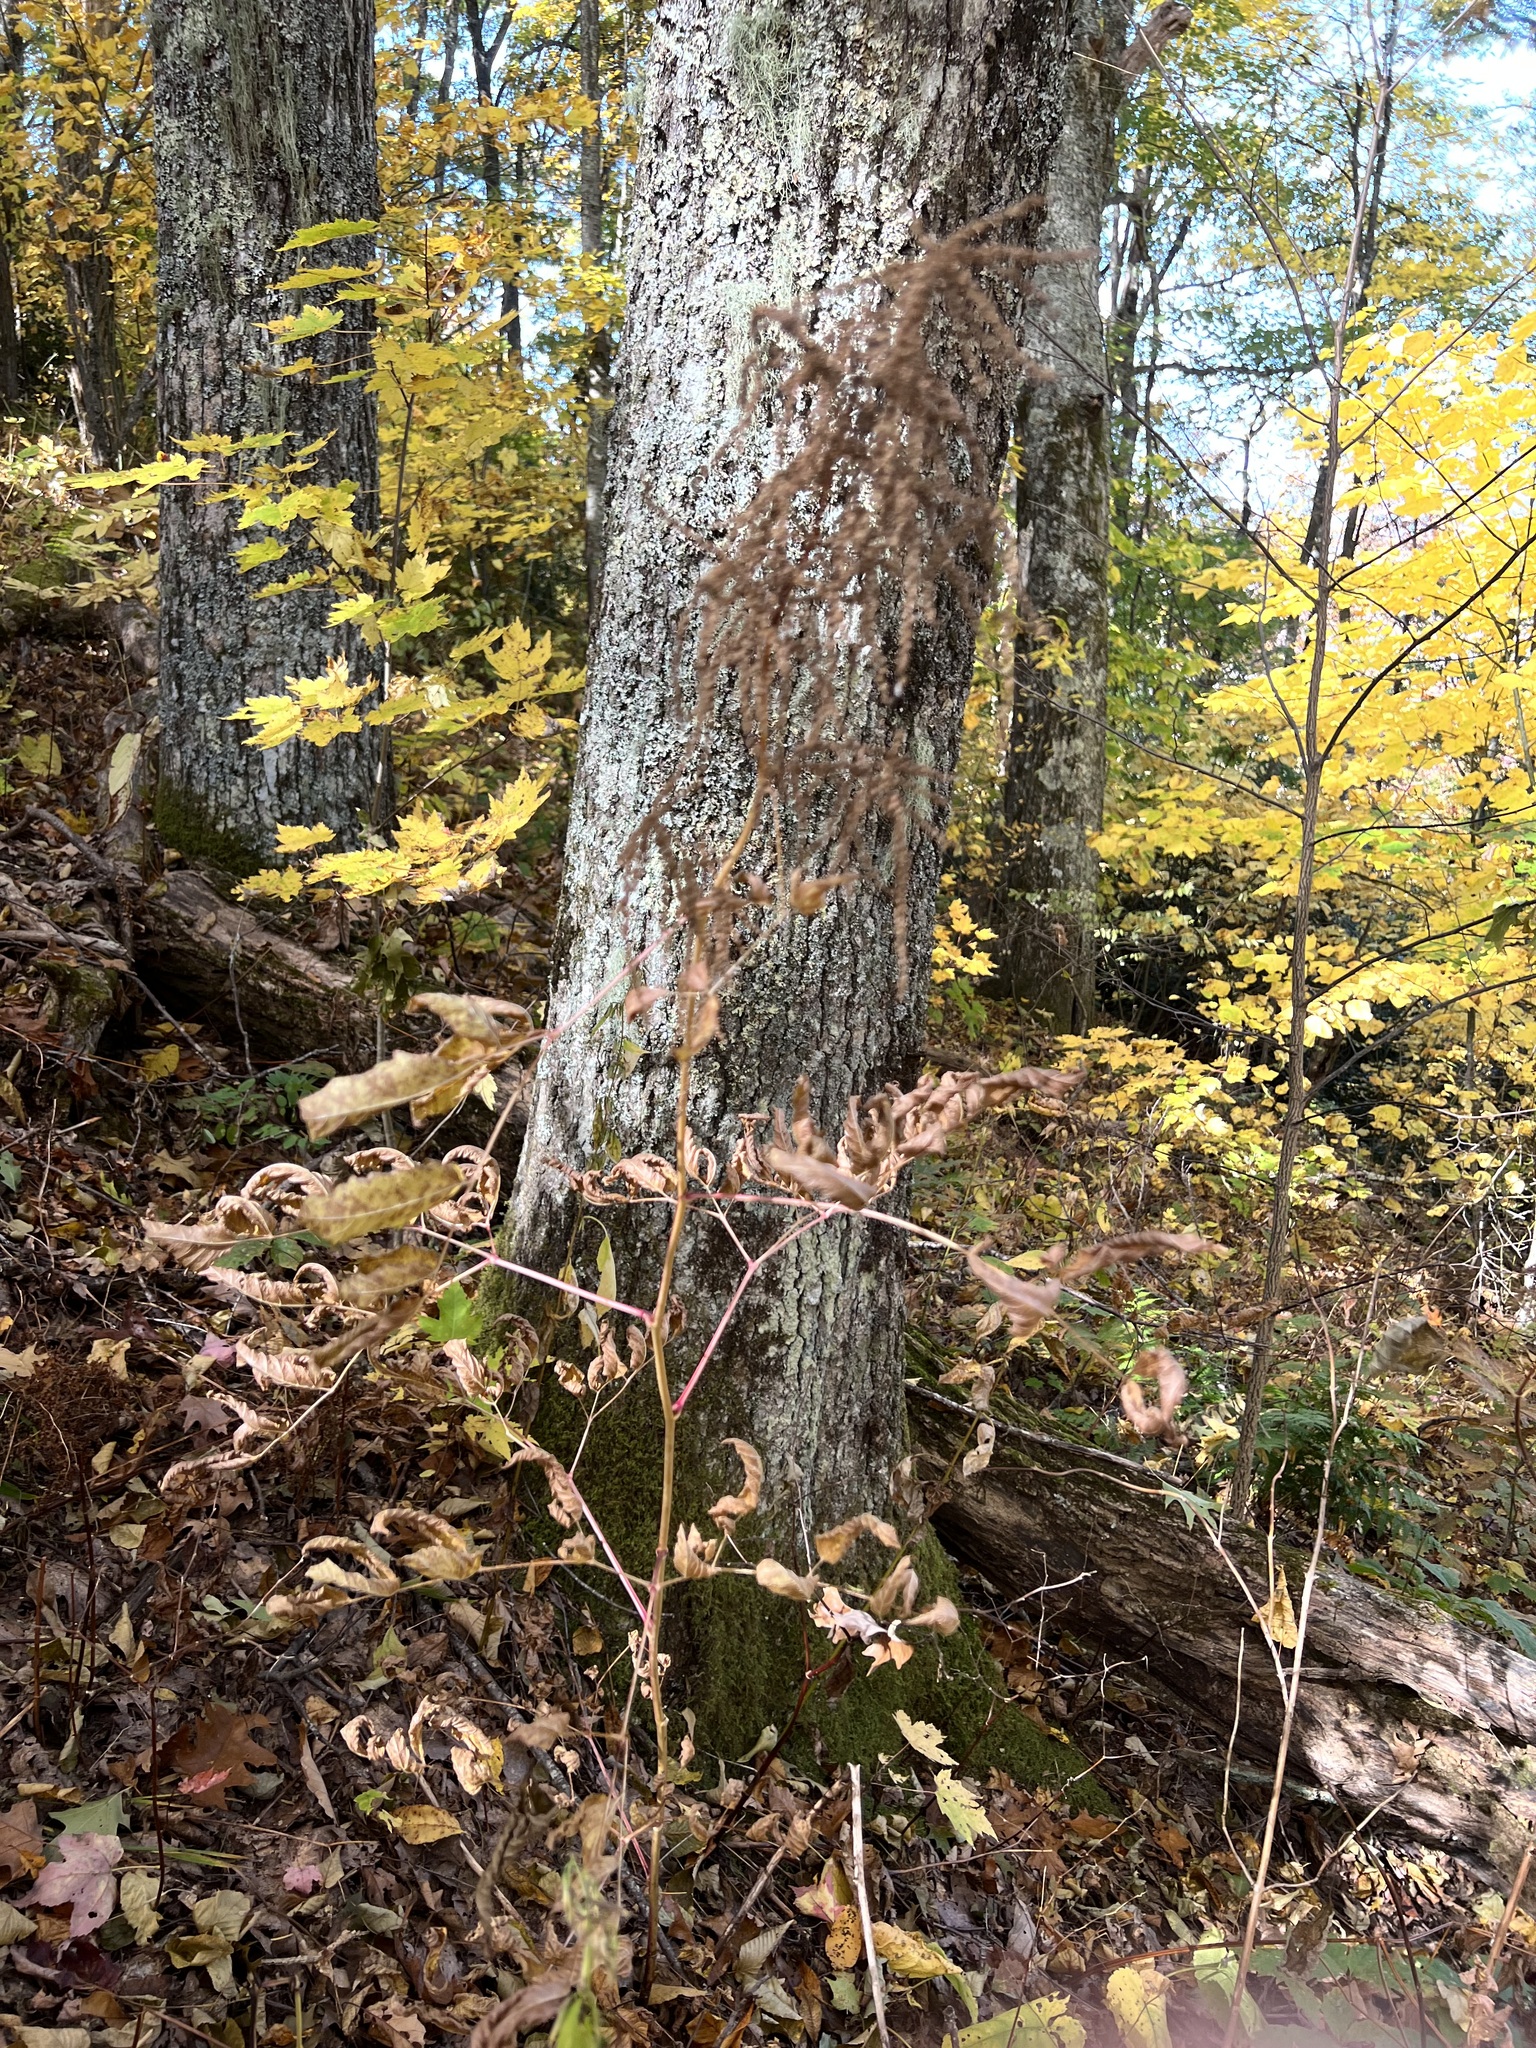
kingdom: Plantae
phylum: Tracheophyta
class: Magnoliopsida
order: Rosales
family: Rosaceae
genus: Aruncus
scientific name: Aruncus dioicus
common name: Buck's-beard
